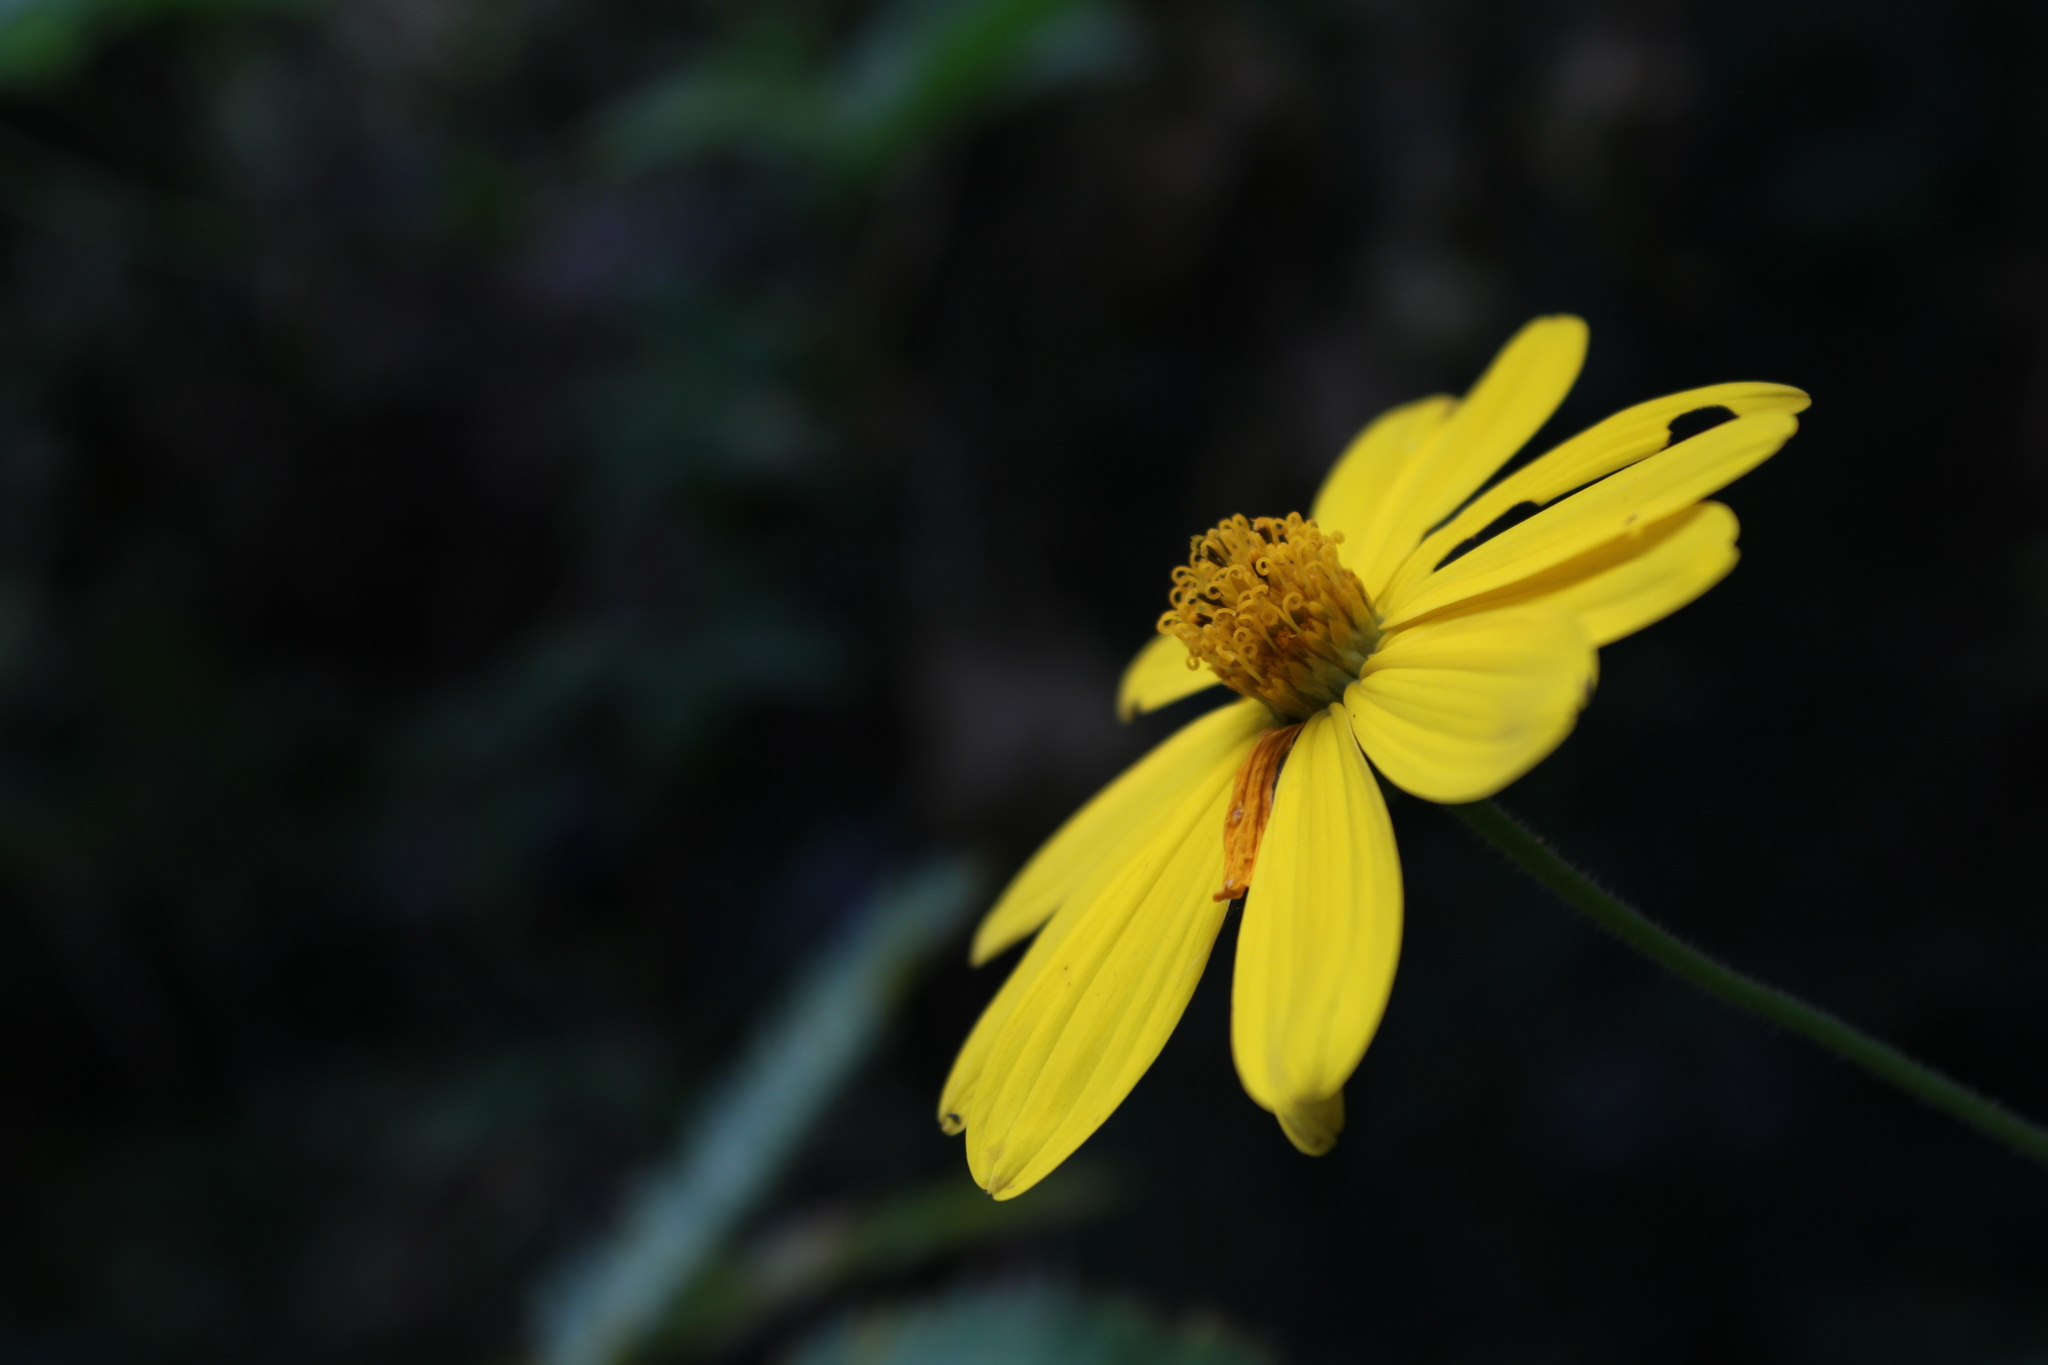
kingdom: Plantae
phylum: Tracheophyta
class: Magnoliopsida
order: Asterales
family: Asteraceae
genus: Wedelia
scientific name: Wedelia silphioides
